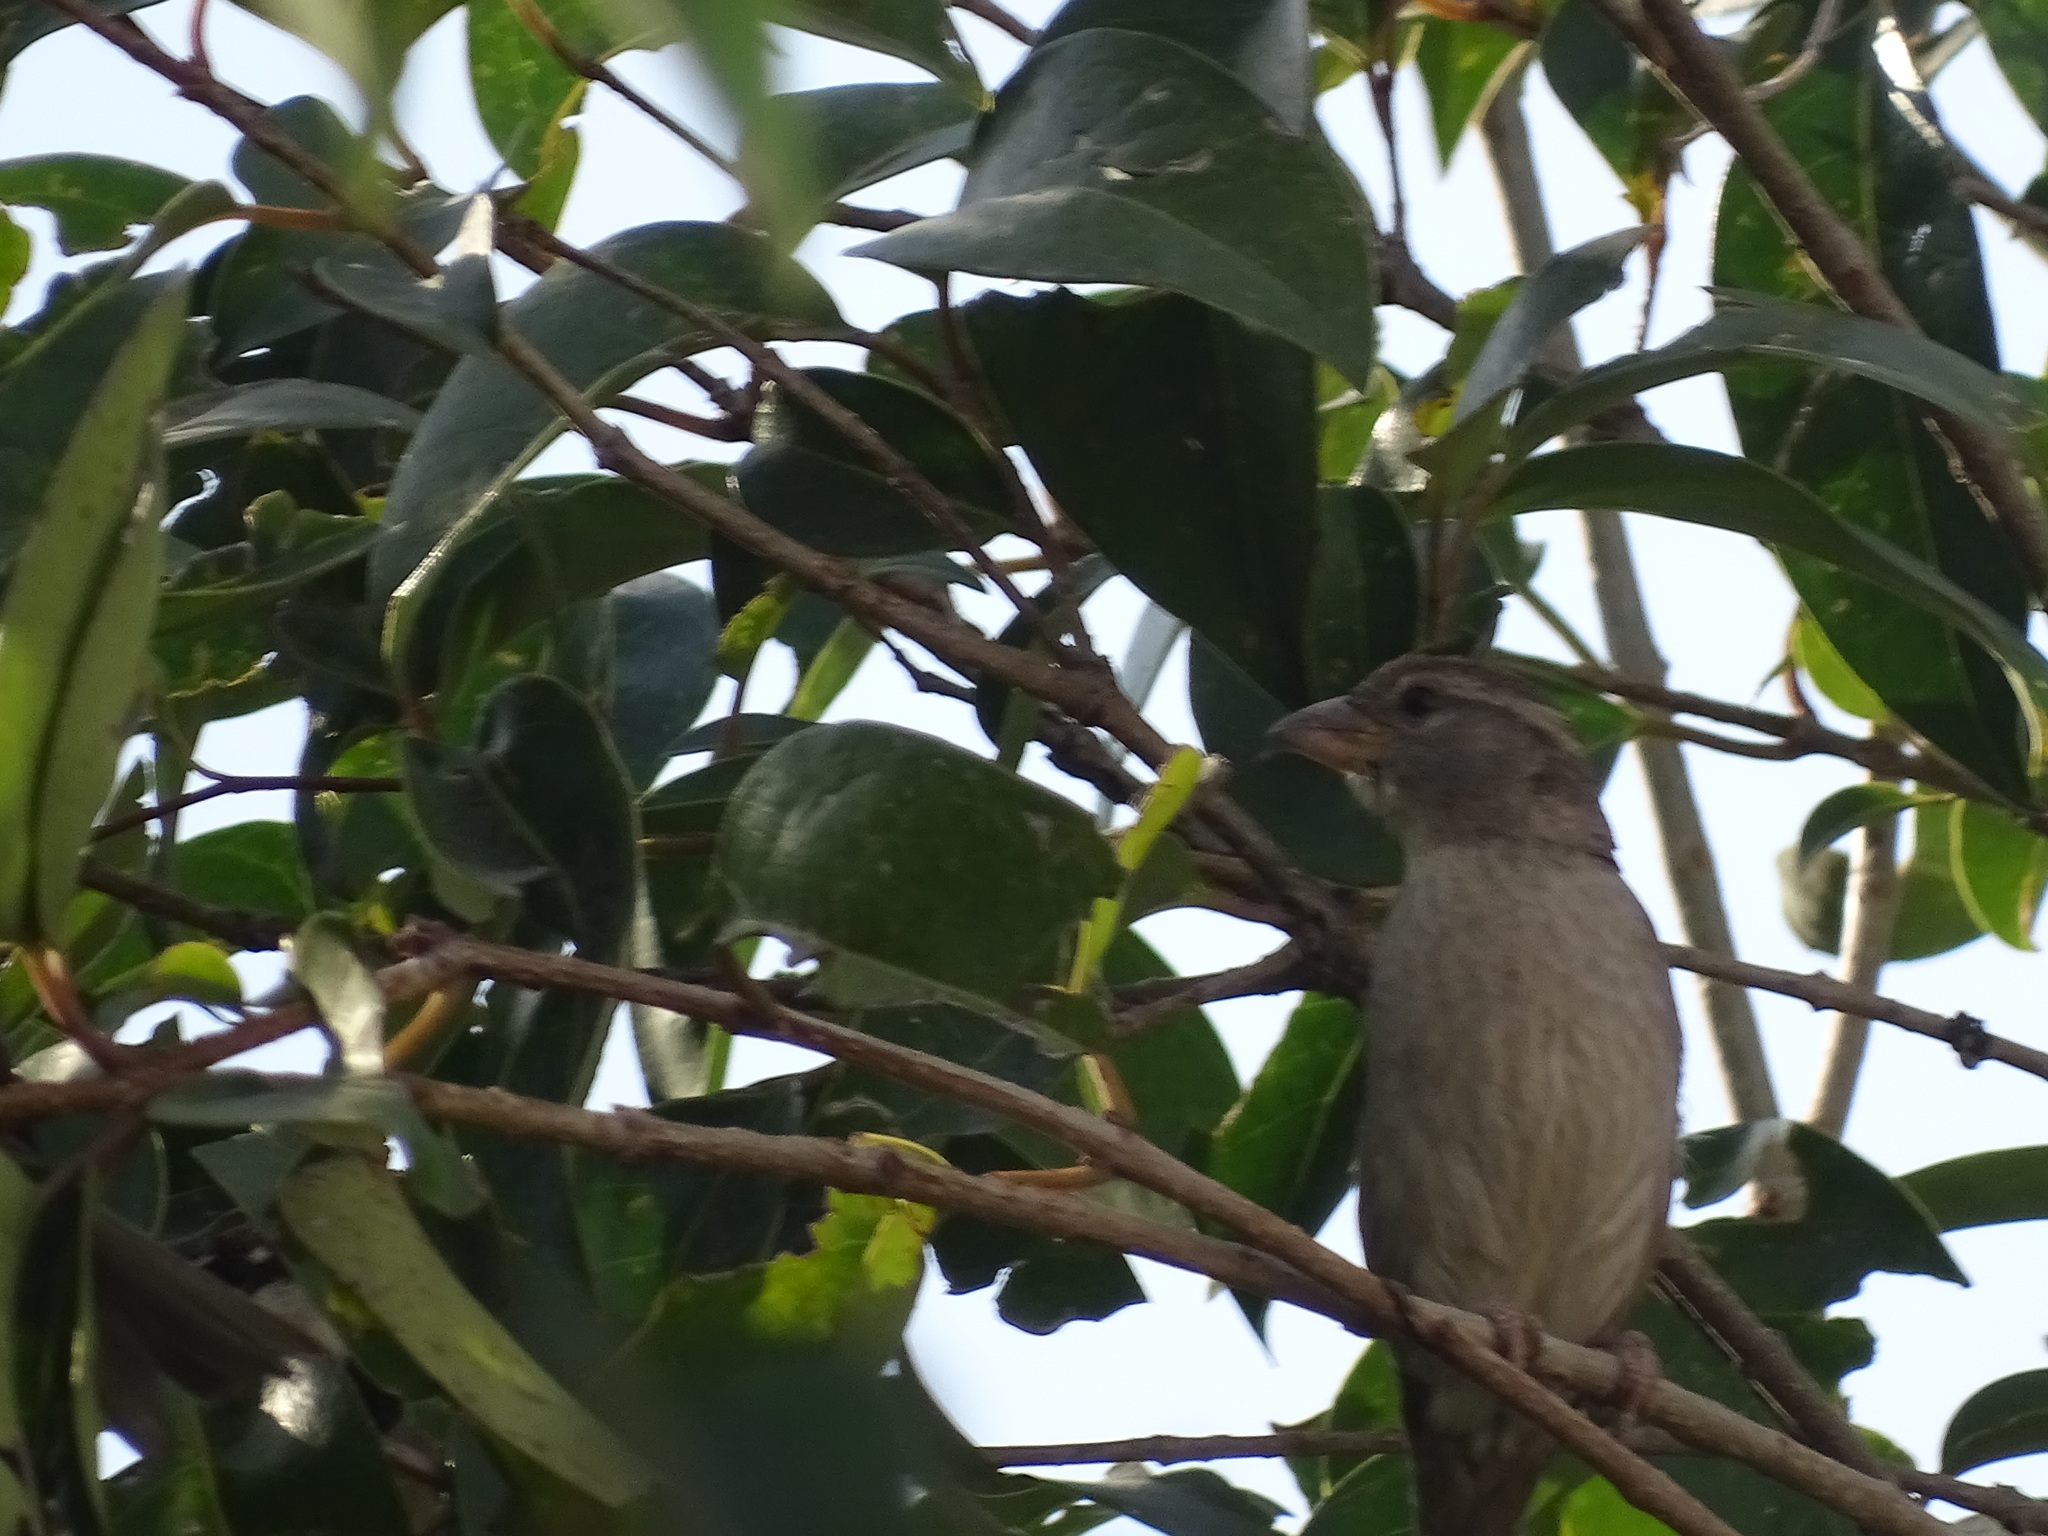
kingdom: Animalia
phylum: Chordata
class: Aves
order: Passeriformes
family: Passeridae
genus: Passer
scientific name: Passer domesticus
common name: House sparrow
